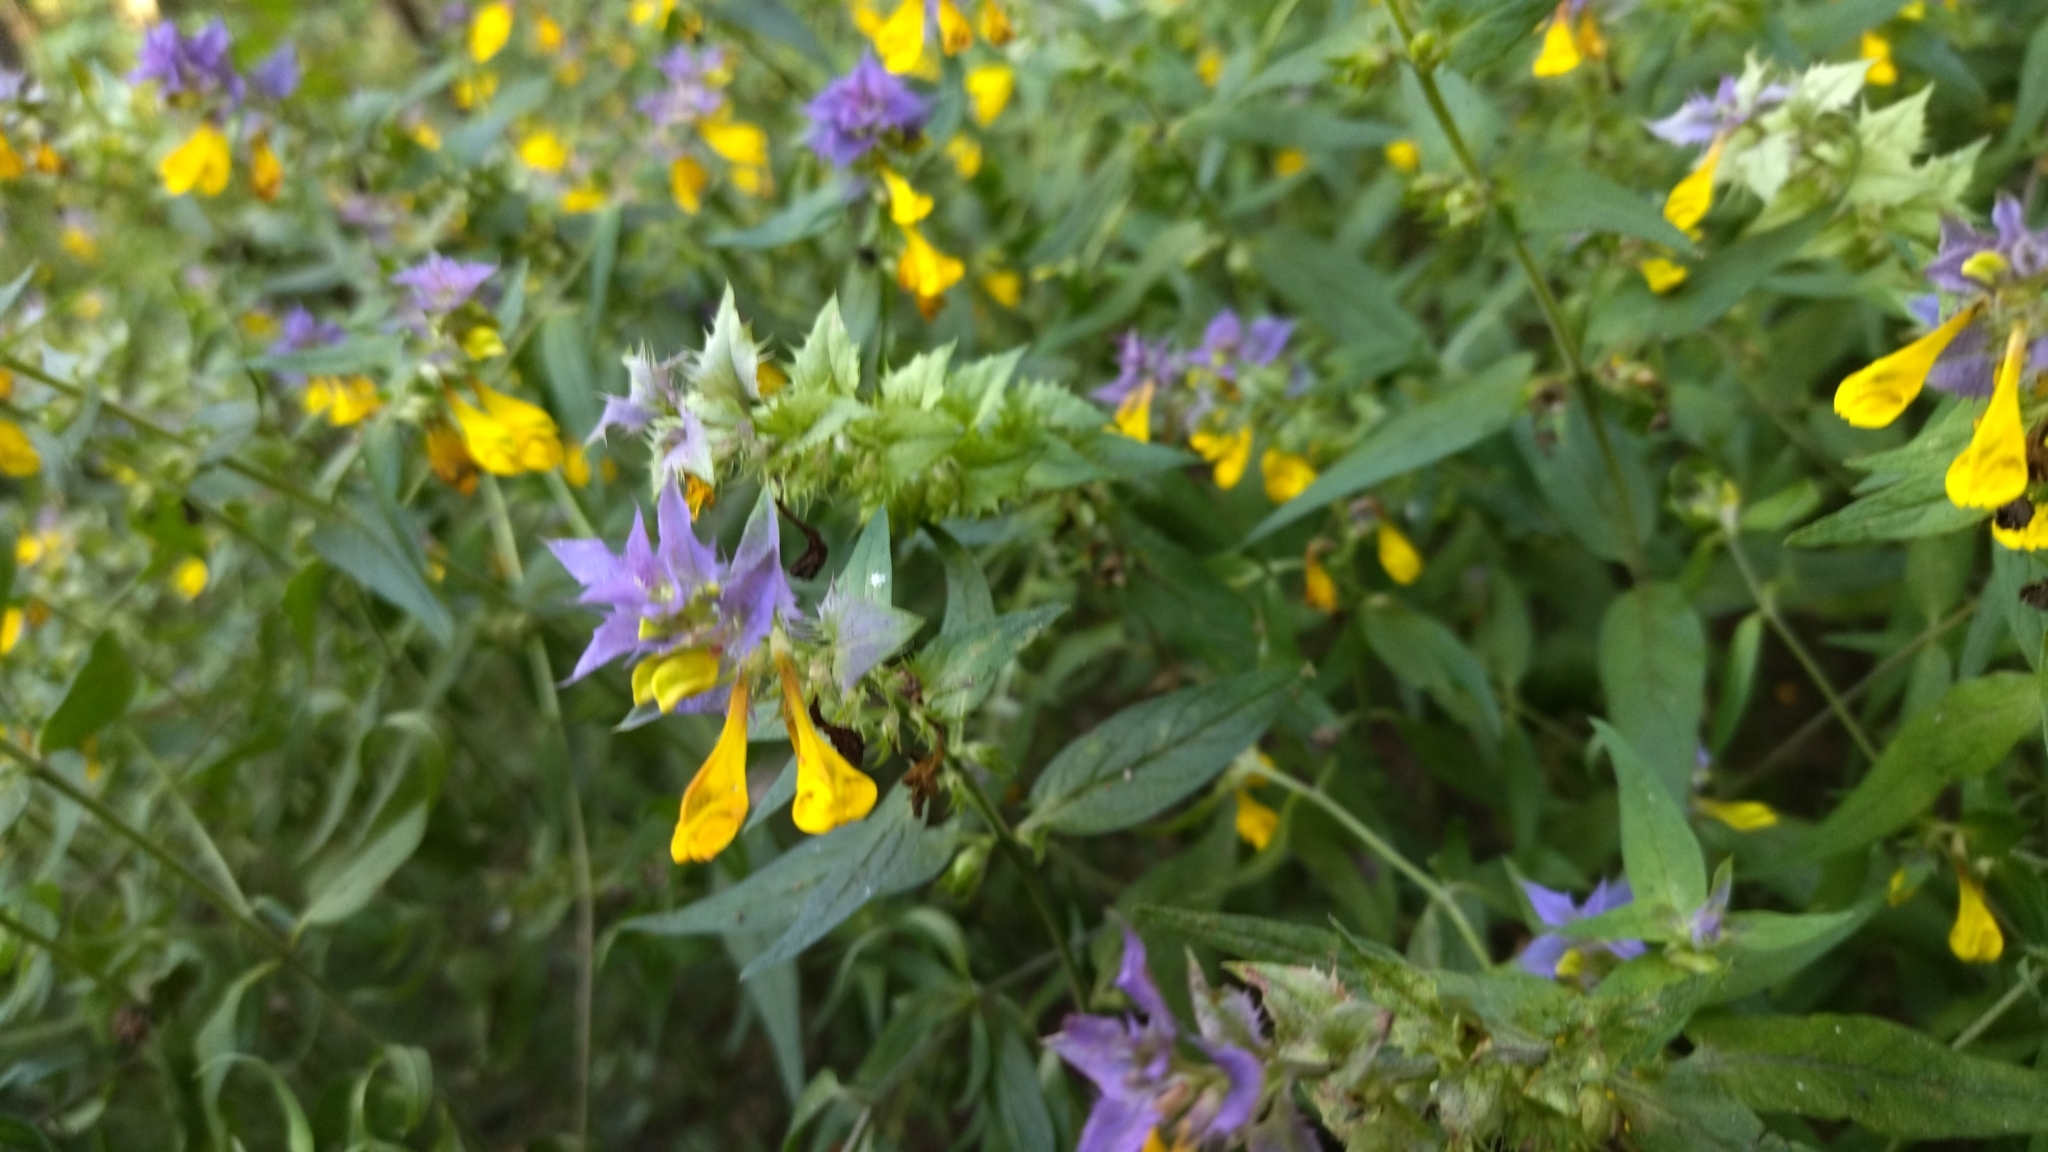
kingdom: Plantae
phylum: Tracheophyta
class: Magnoliopsida
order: Lamiales
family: Orobanchaceae
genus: Melampyrum
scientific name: Melampyrum nemorosum
